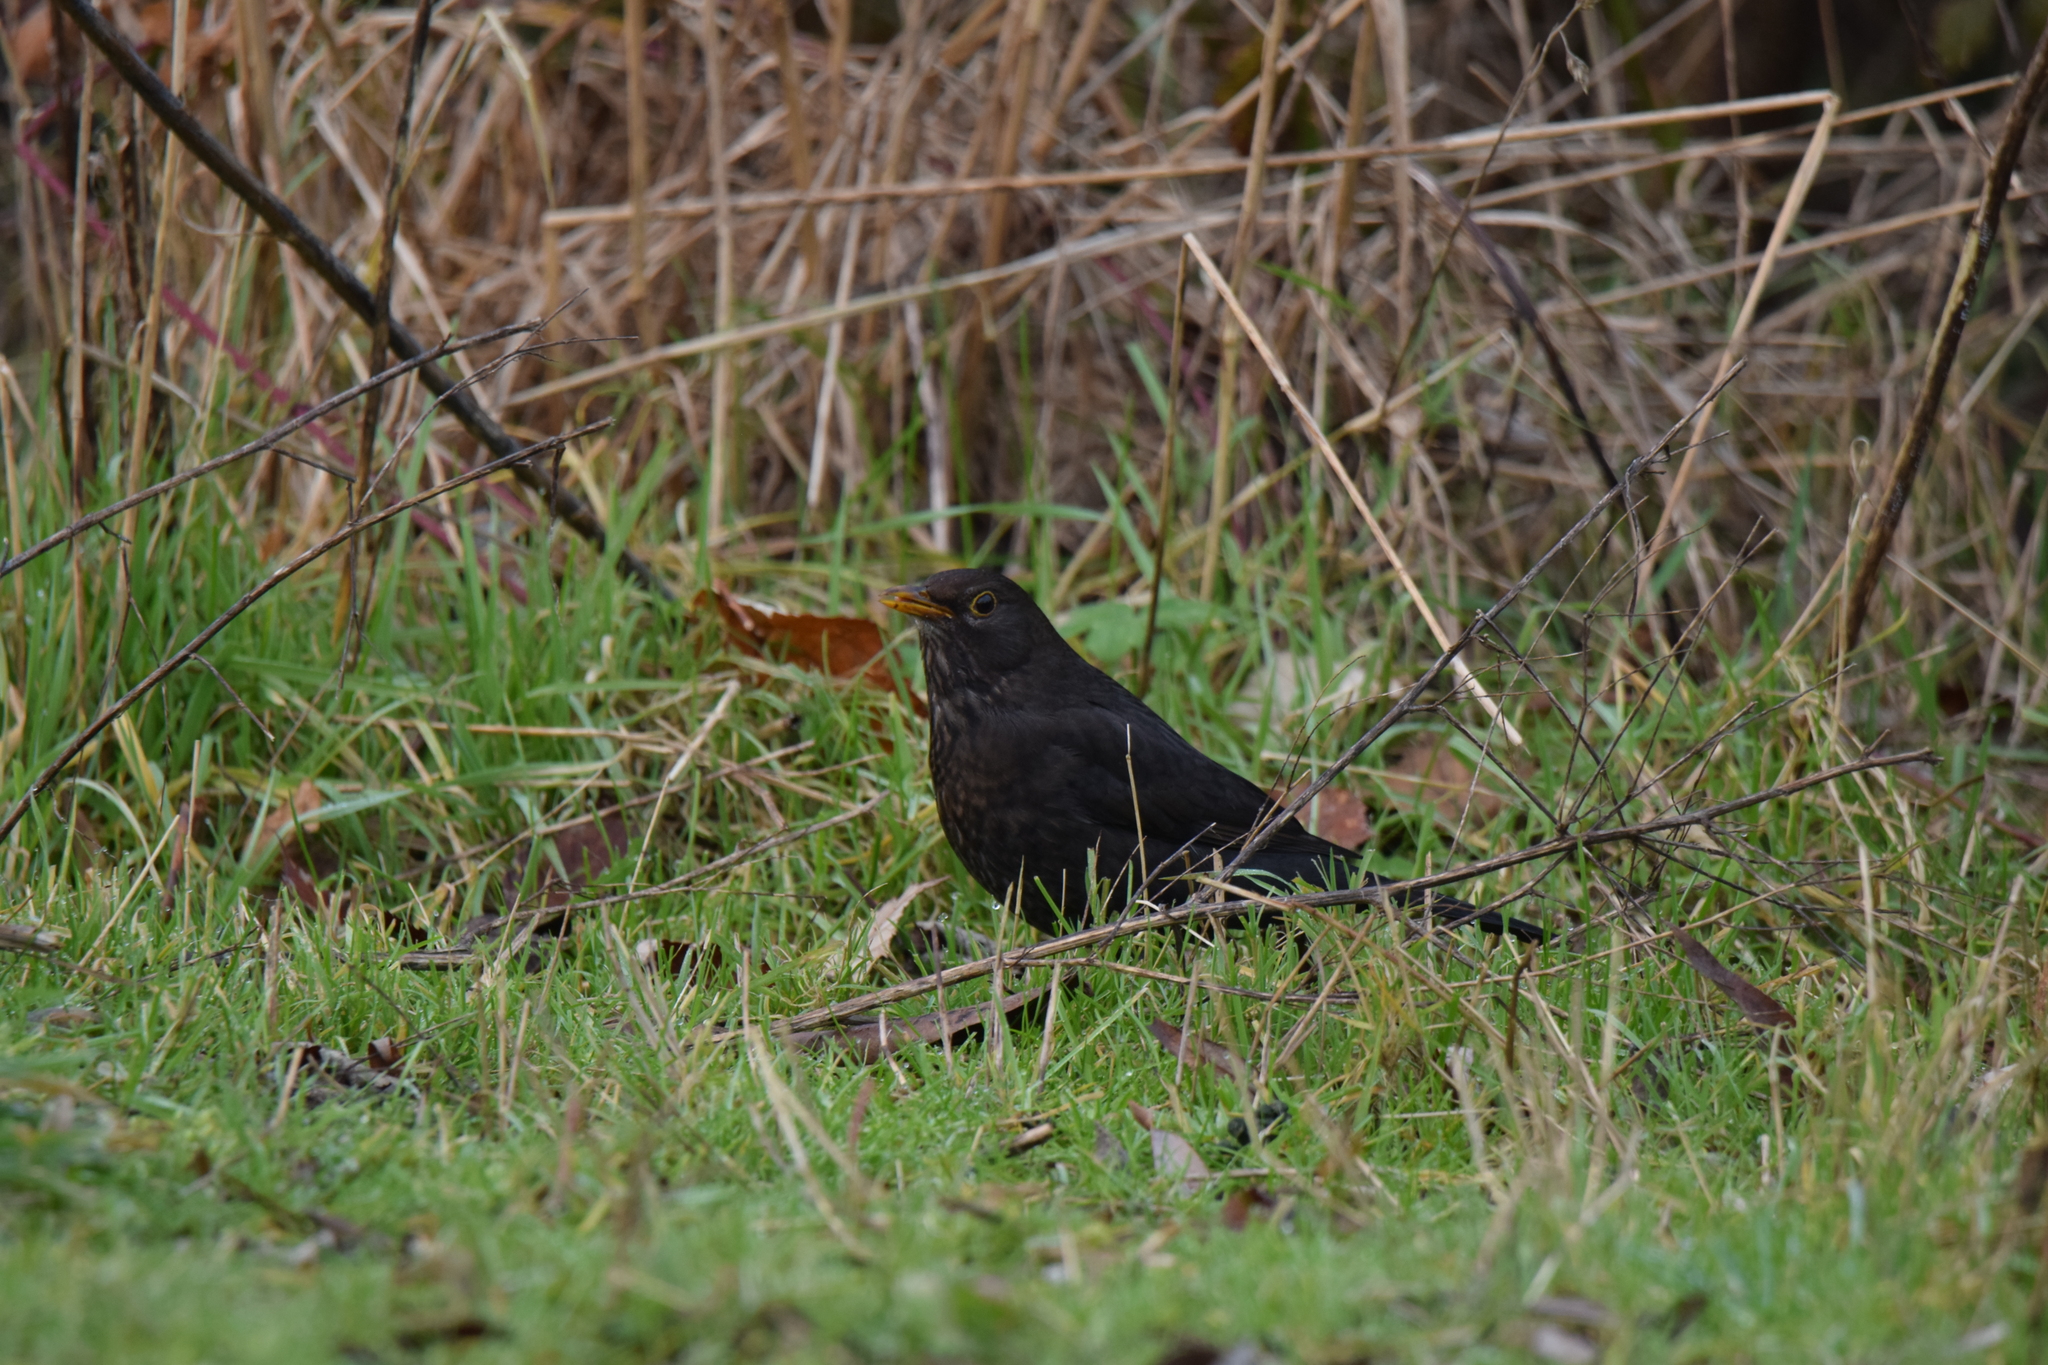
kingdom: Animalia
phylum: Chordata
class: Aves
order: Passeriformes
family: Turdidae
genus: Turdus
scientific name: Turdus merula
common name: Common blackbird
